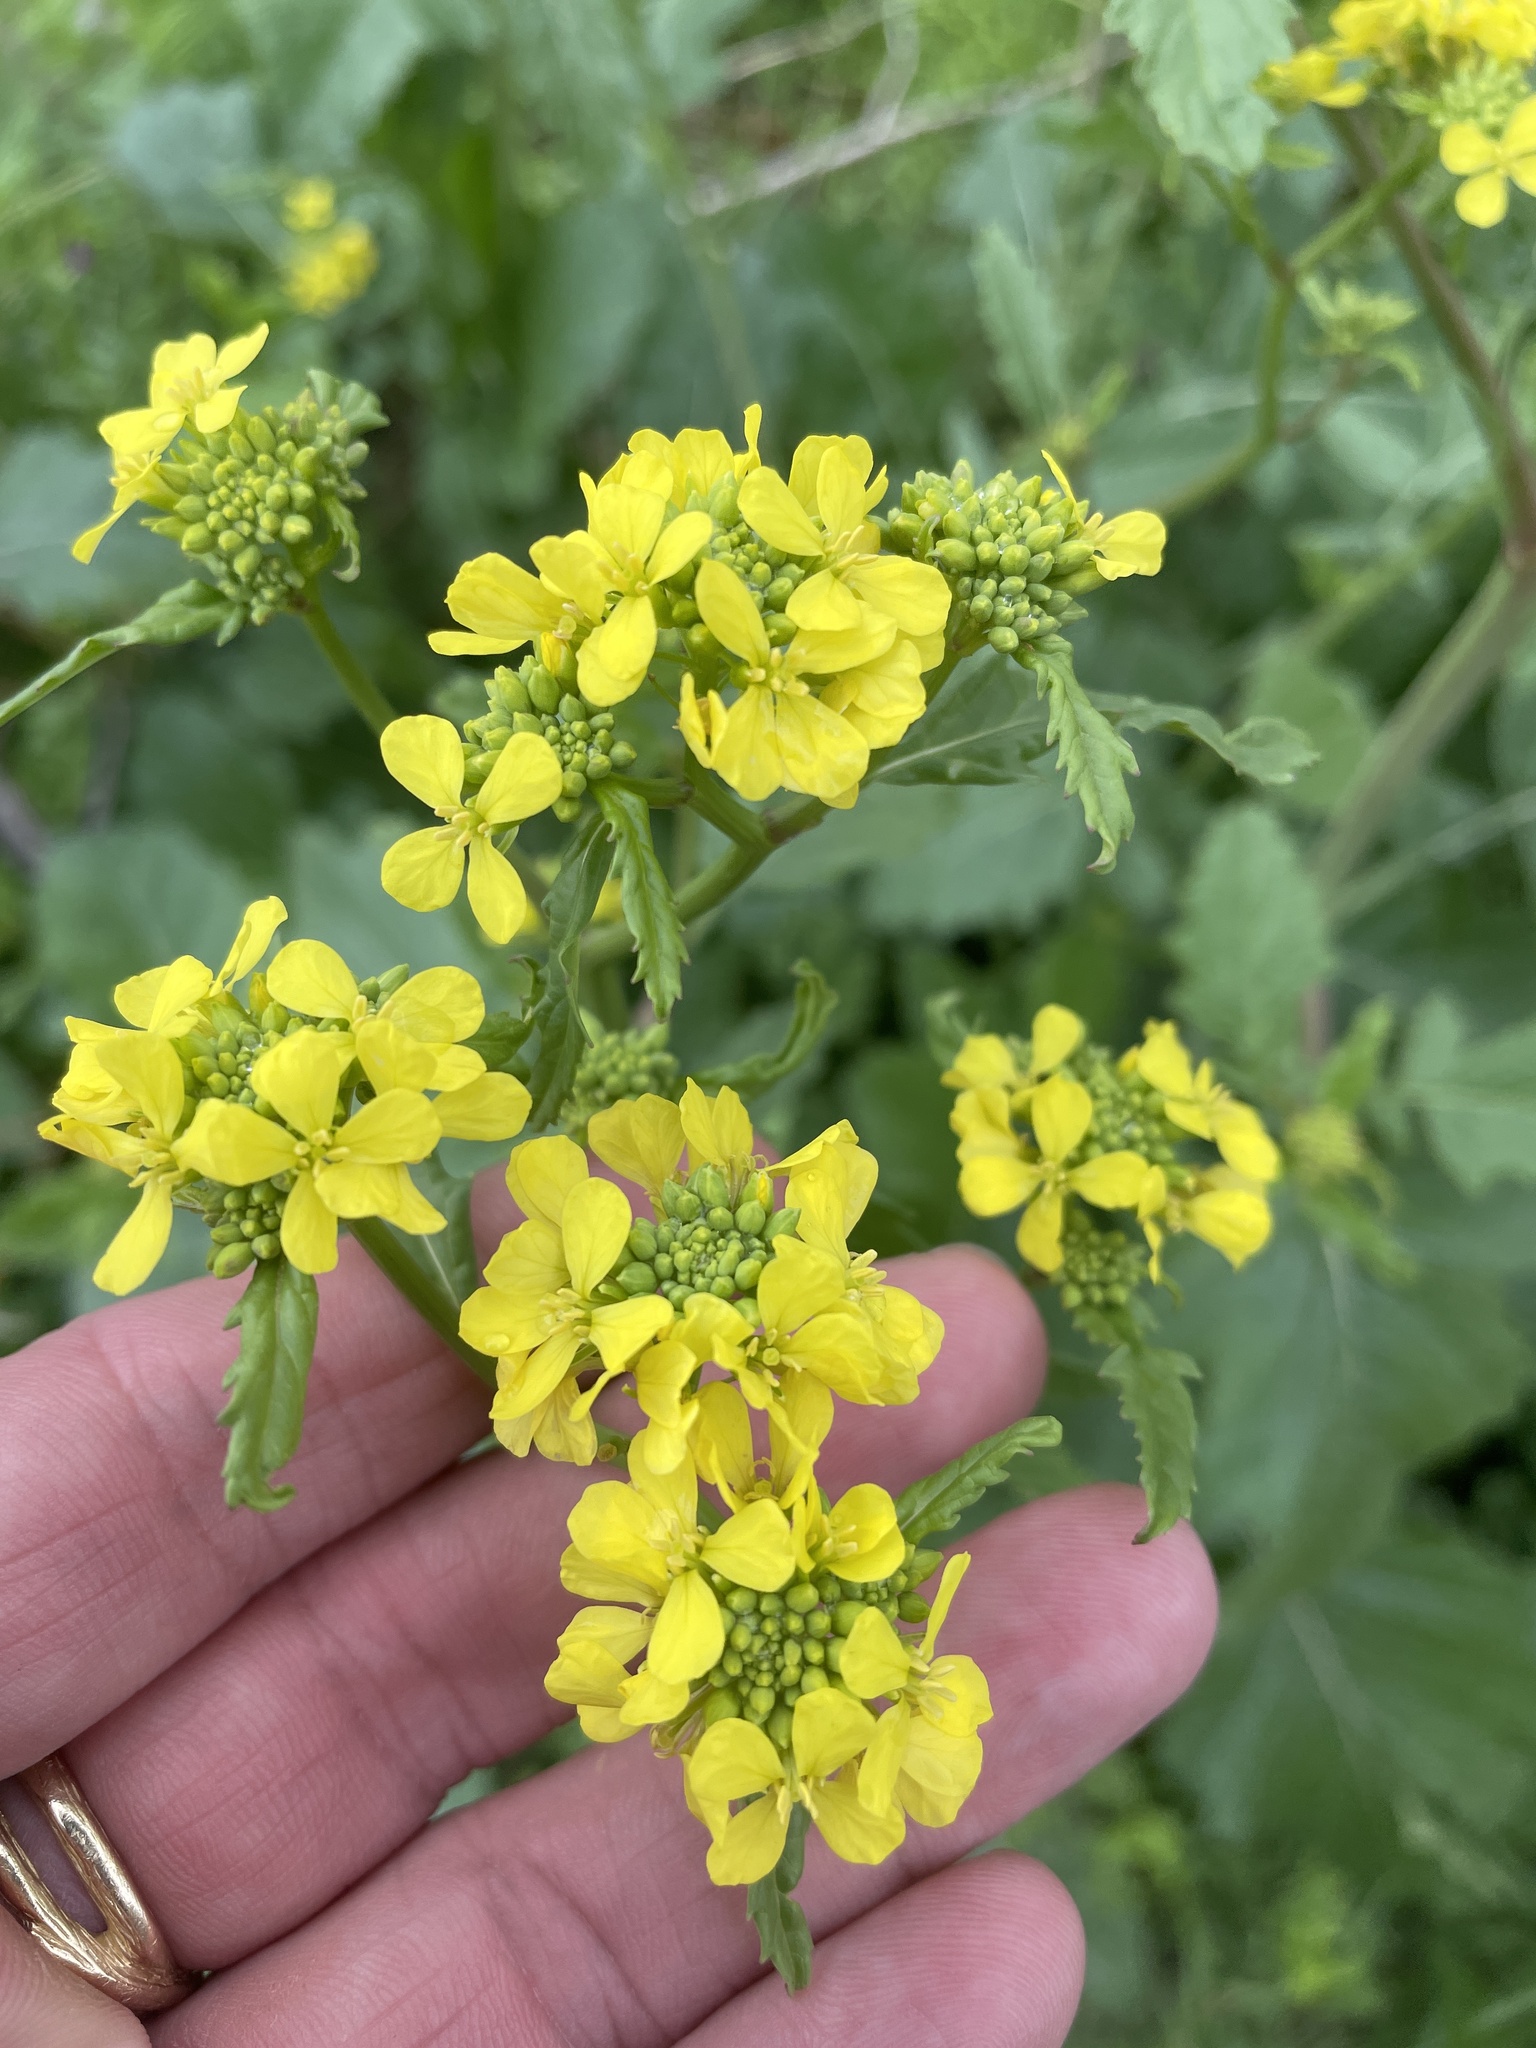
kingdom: Plantae
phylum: Tracheophyta
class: Magnoliopsida
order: Brassicales
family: Brassicaceae
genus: Rapistrum
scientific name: Rapistrum rugosum
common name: Annual bastardcabbage
